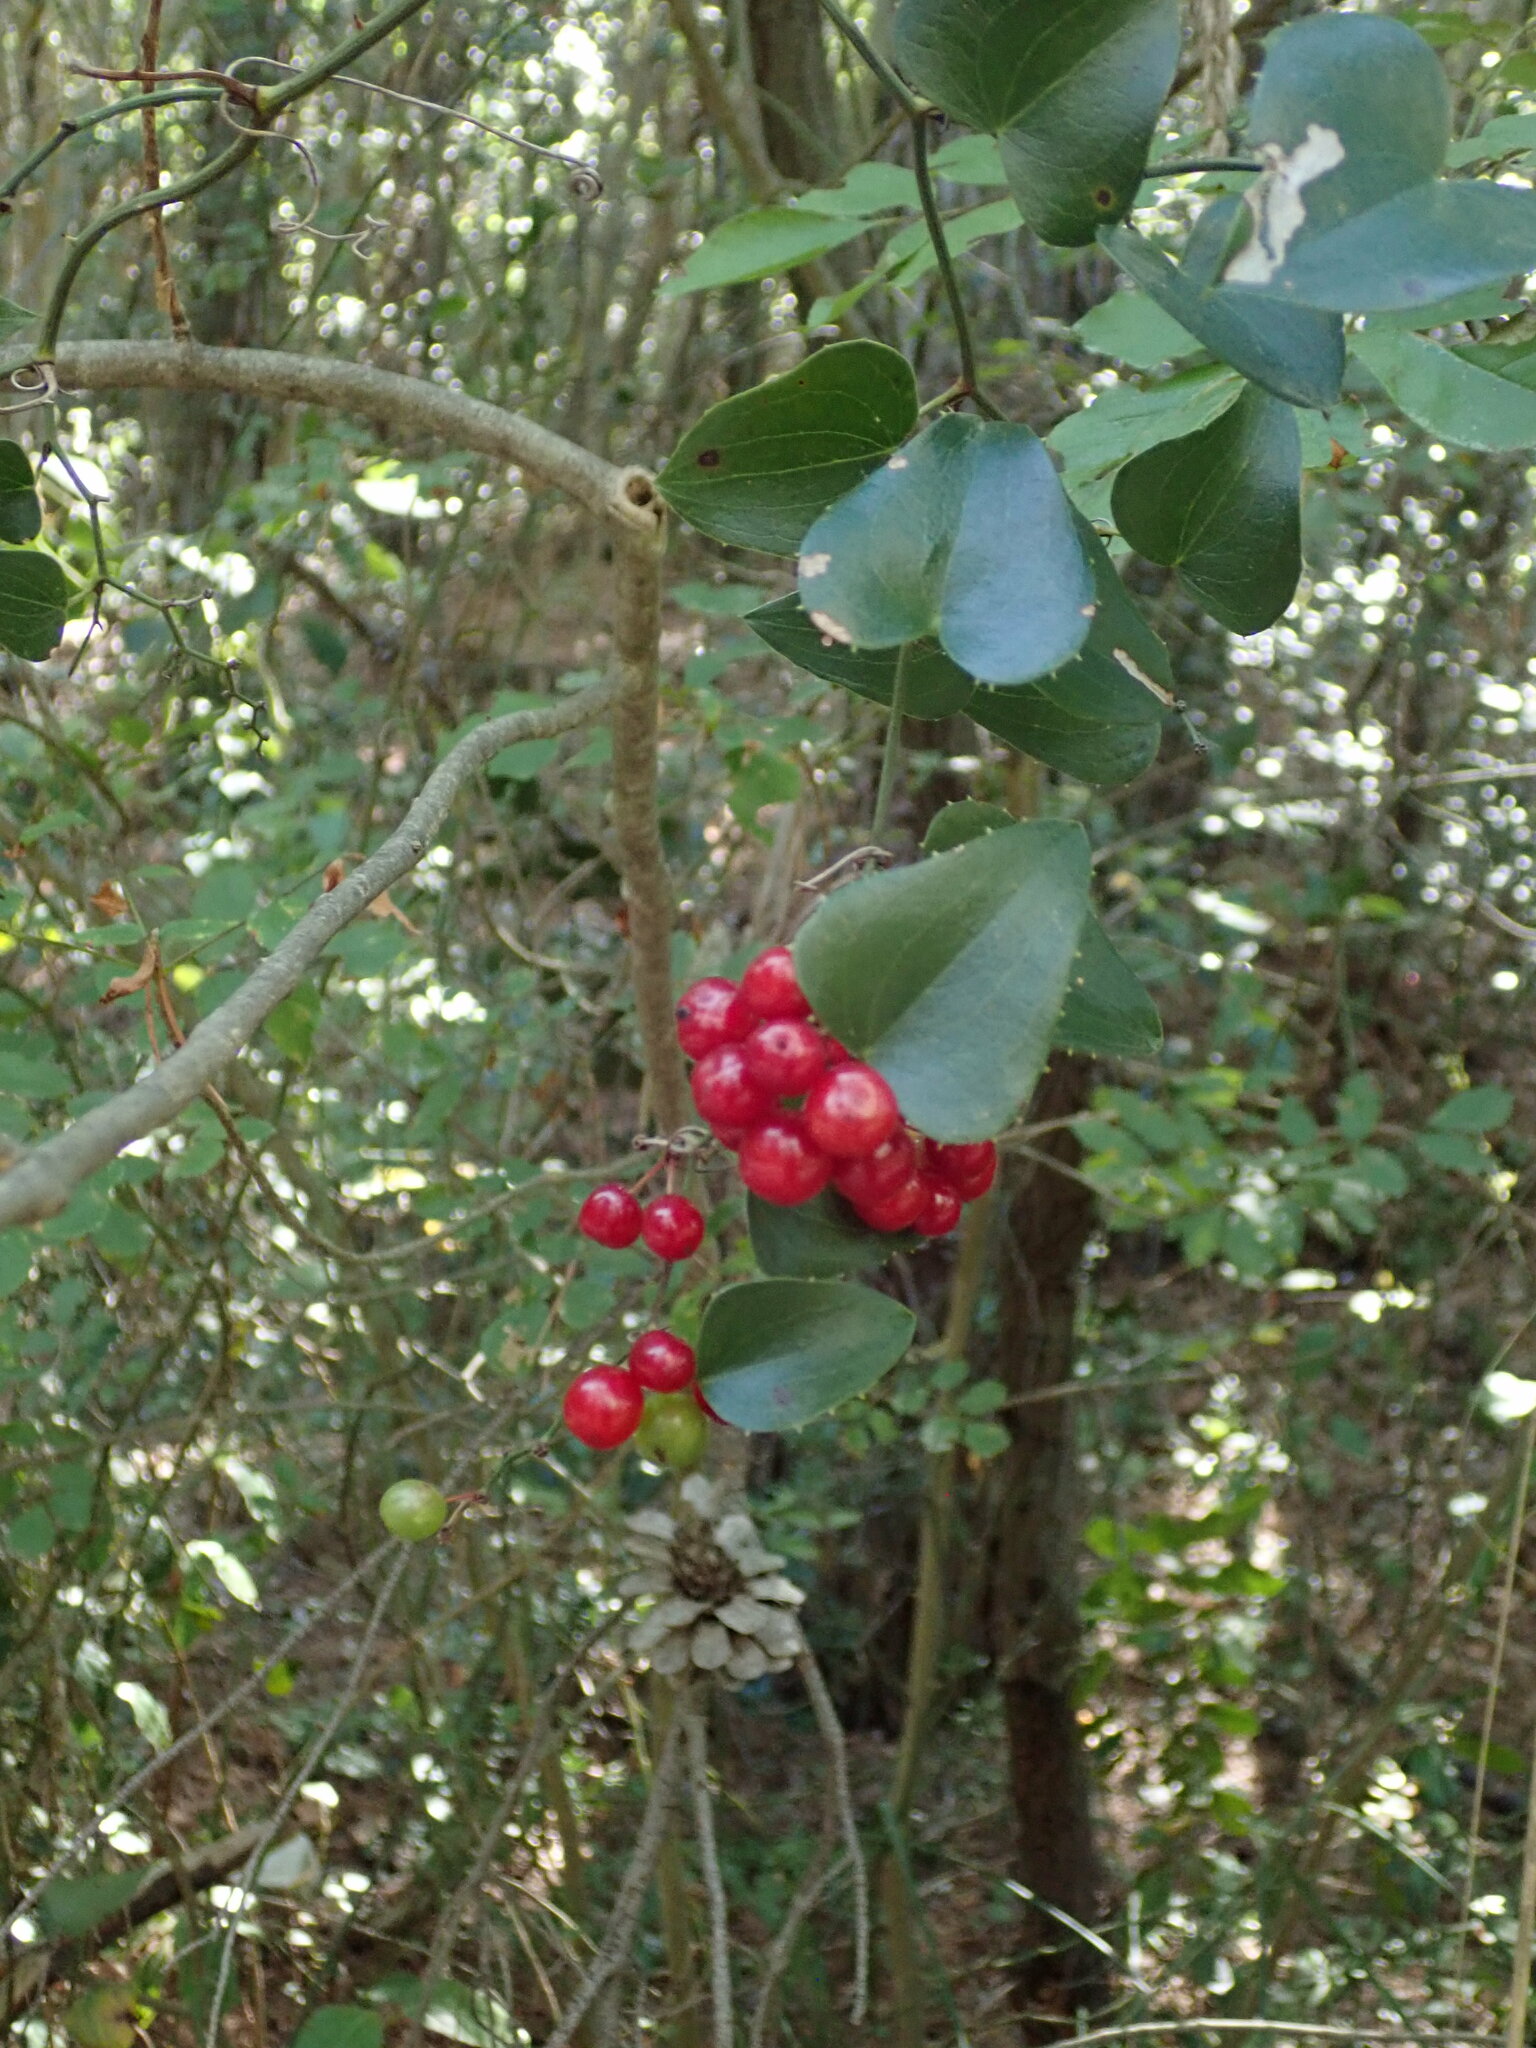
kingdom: Plantae
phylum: Tracheophyta
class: Liliopsida
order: Liliales
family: Smilacaceae
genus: Smilax
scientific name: Smilax aspera
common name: Common smilax
